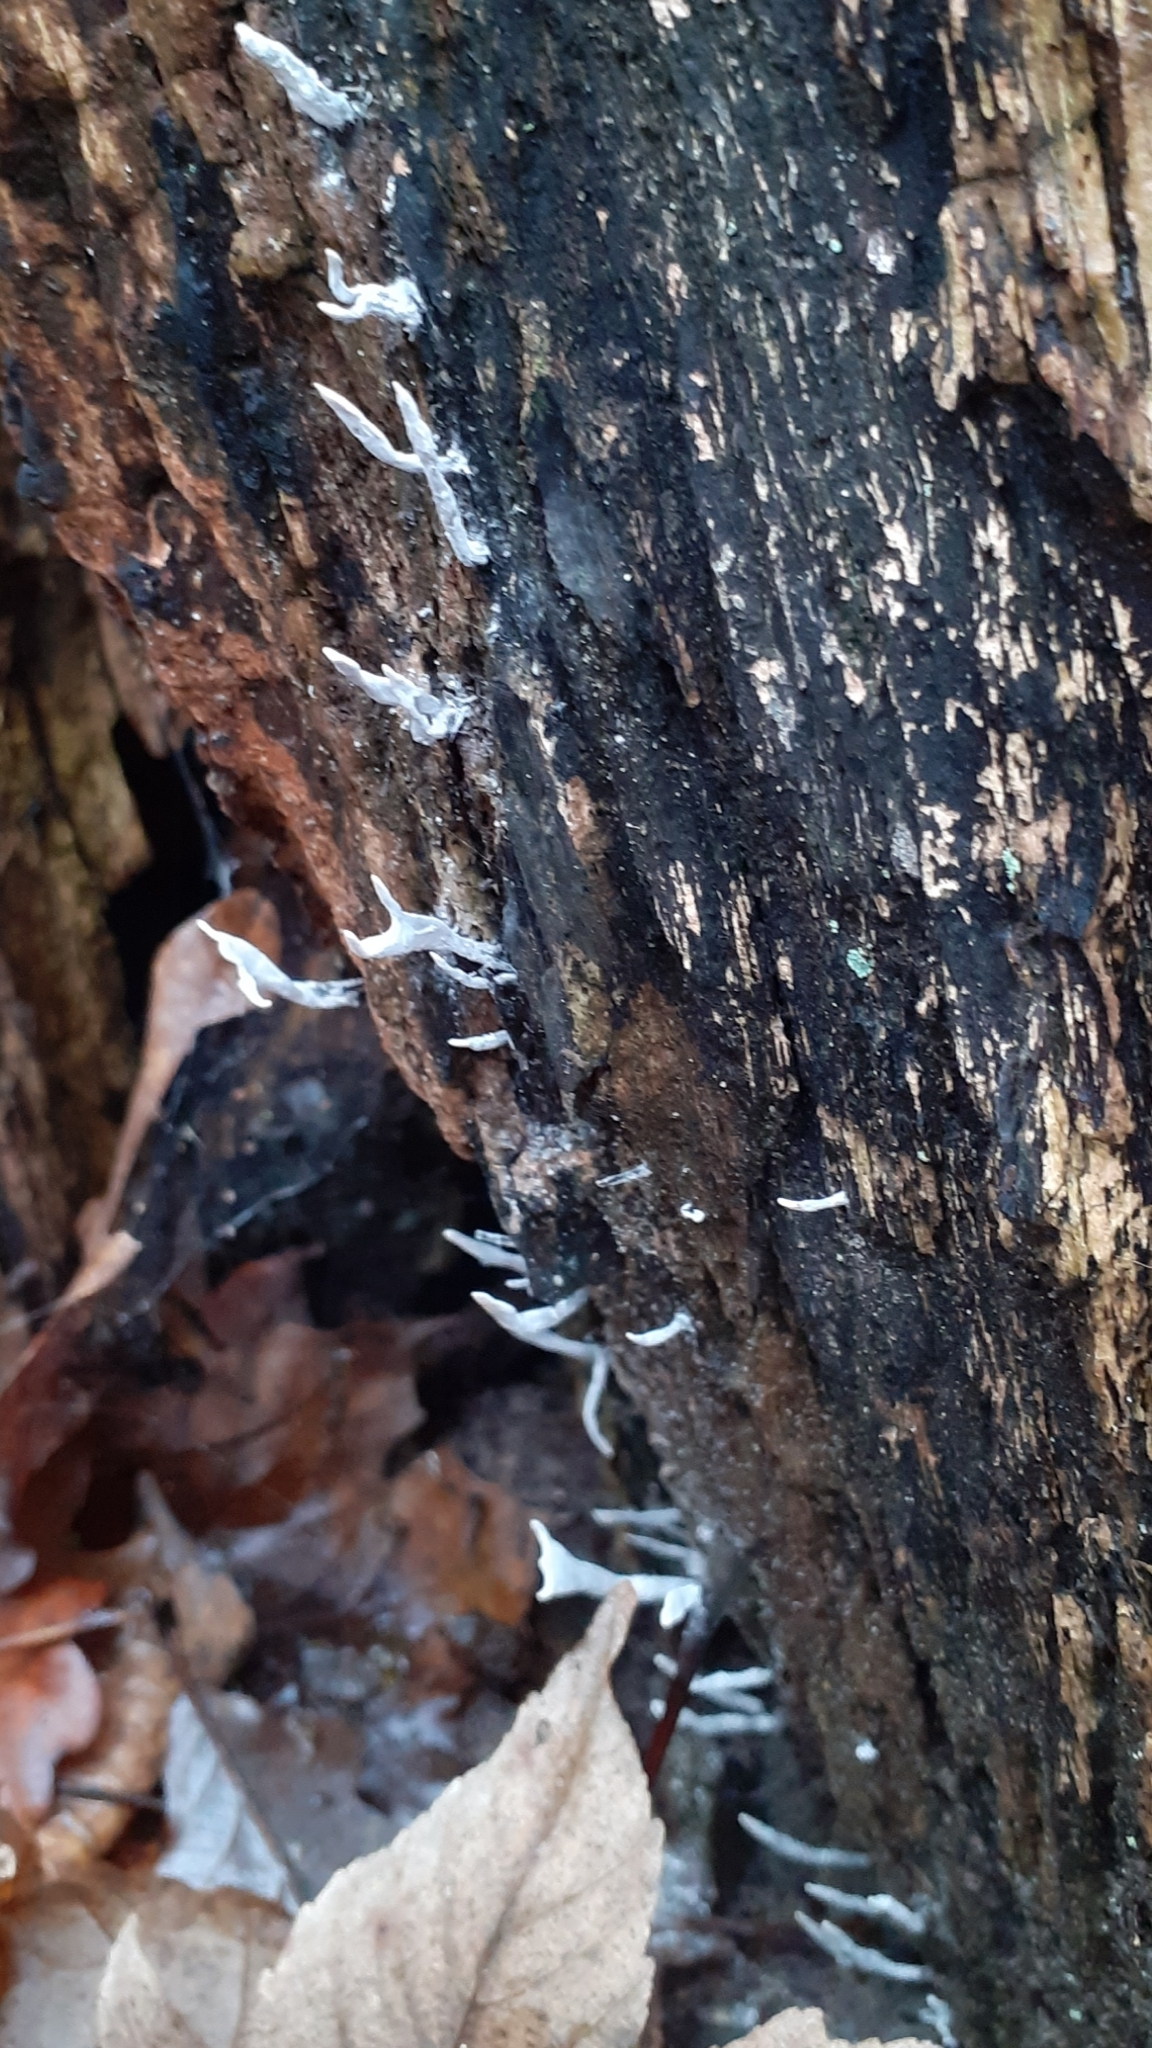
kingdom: Fungi
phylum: Ascomycota
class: Sordariomycetes
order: Xylariales
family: Xylariaceae
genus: Xylaria
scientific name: Xylaria hypoxylon
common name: Candle-snuff fungus
